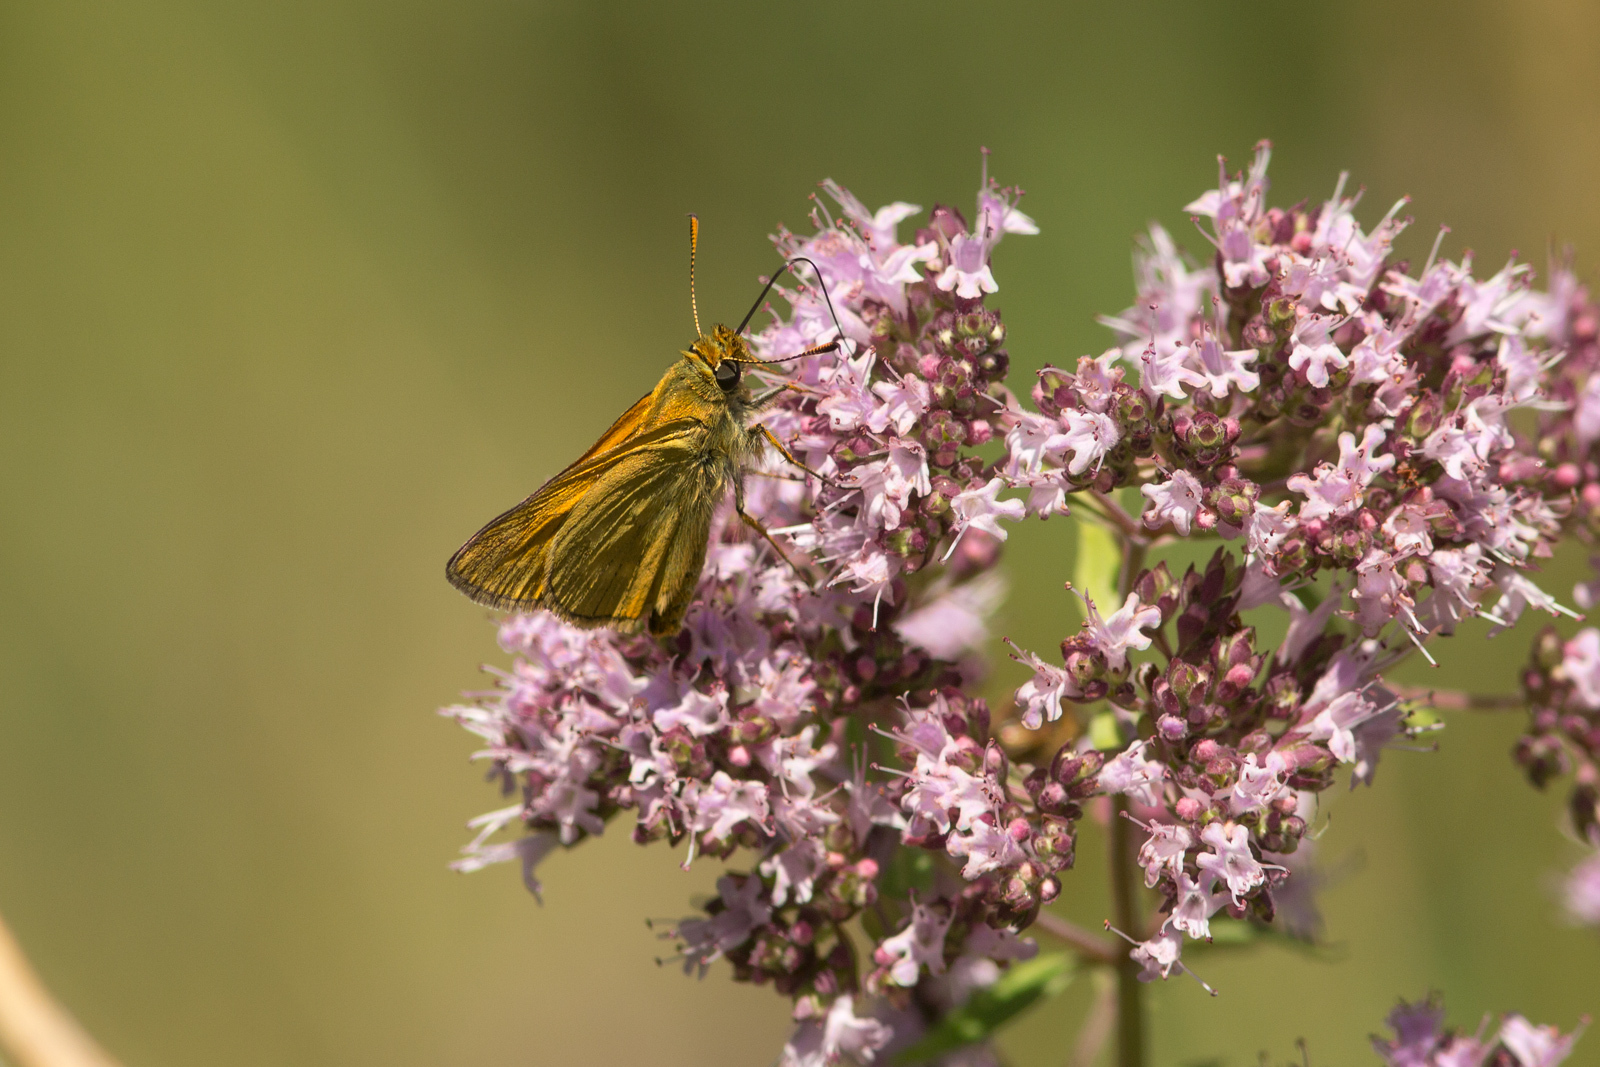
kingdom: Animalia
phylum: Arthropoda
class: Insecta
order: Lepidoptera
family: Hesperiidae
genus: Ochlodes
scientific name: Ochlodes venata
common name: Large skipper
